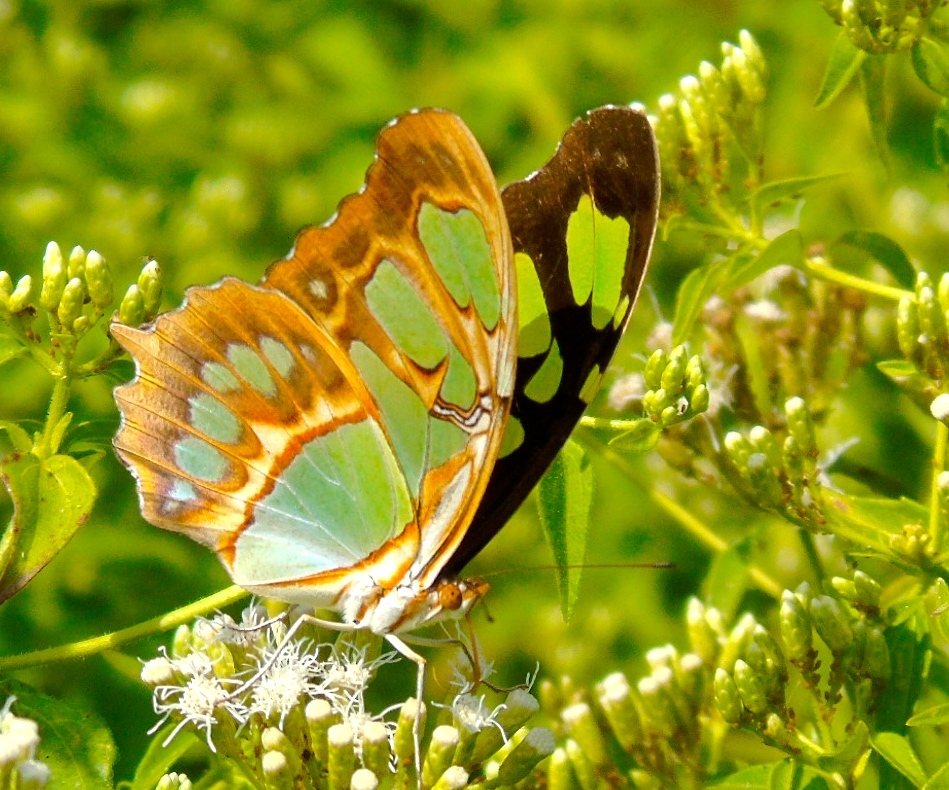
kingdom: Animalia
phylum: Arthropoda
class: Insecta
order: Lepidoptera
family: Nymphalidae
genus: Siproeta
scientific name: Siproeta stelenes
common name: Malachite
